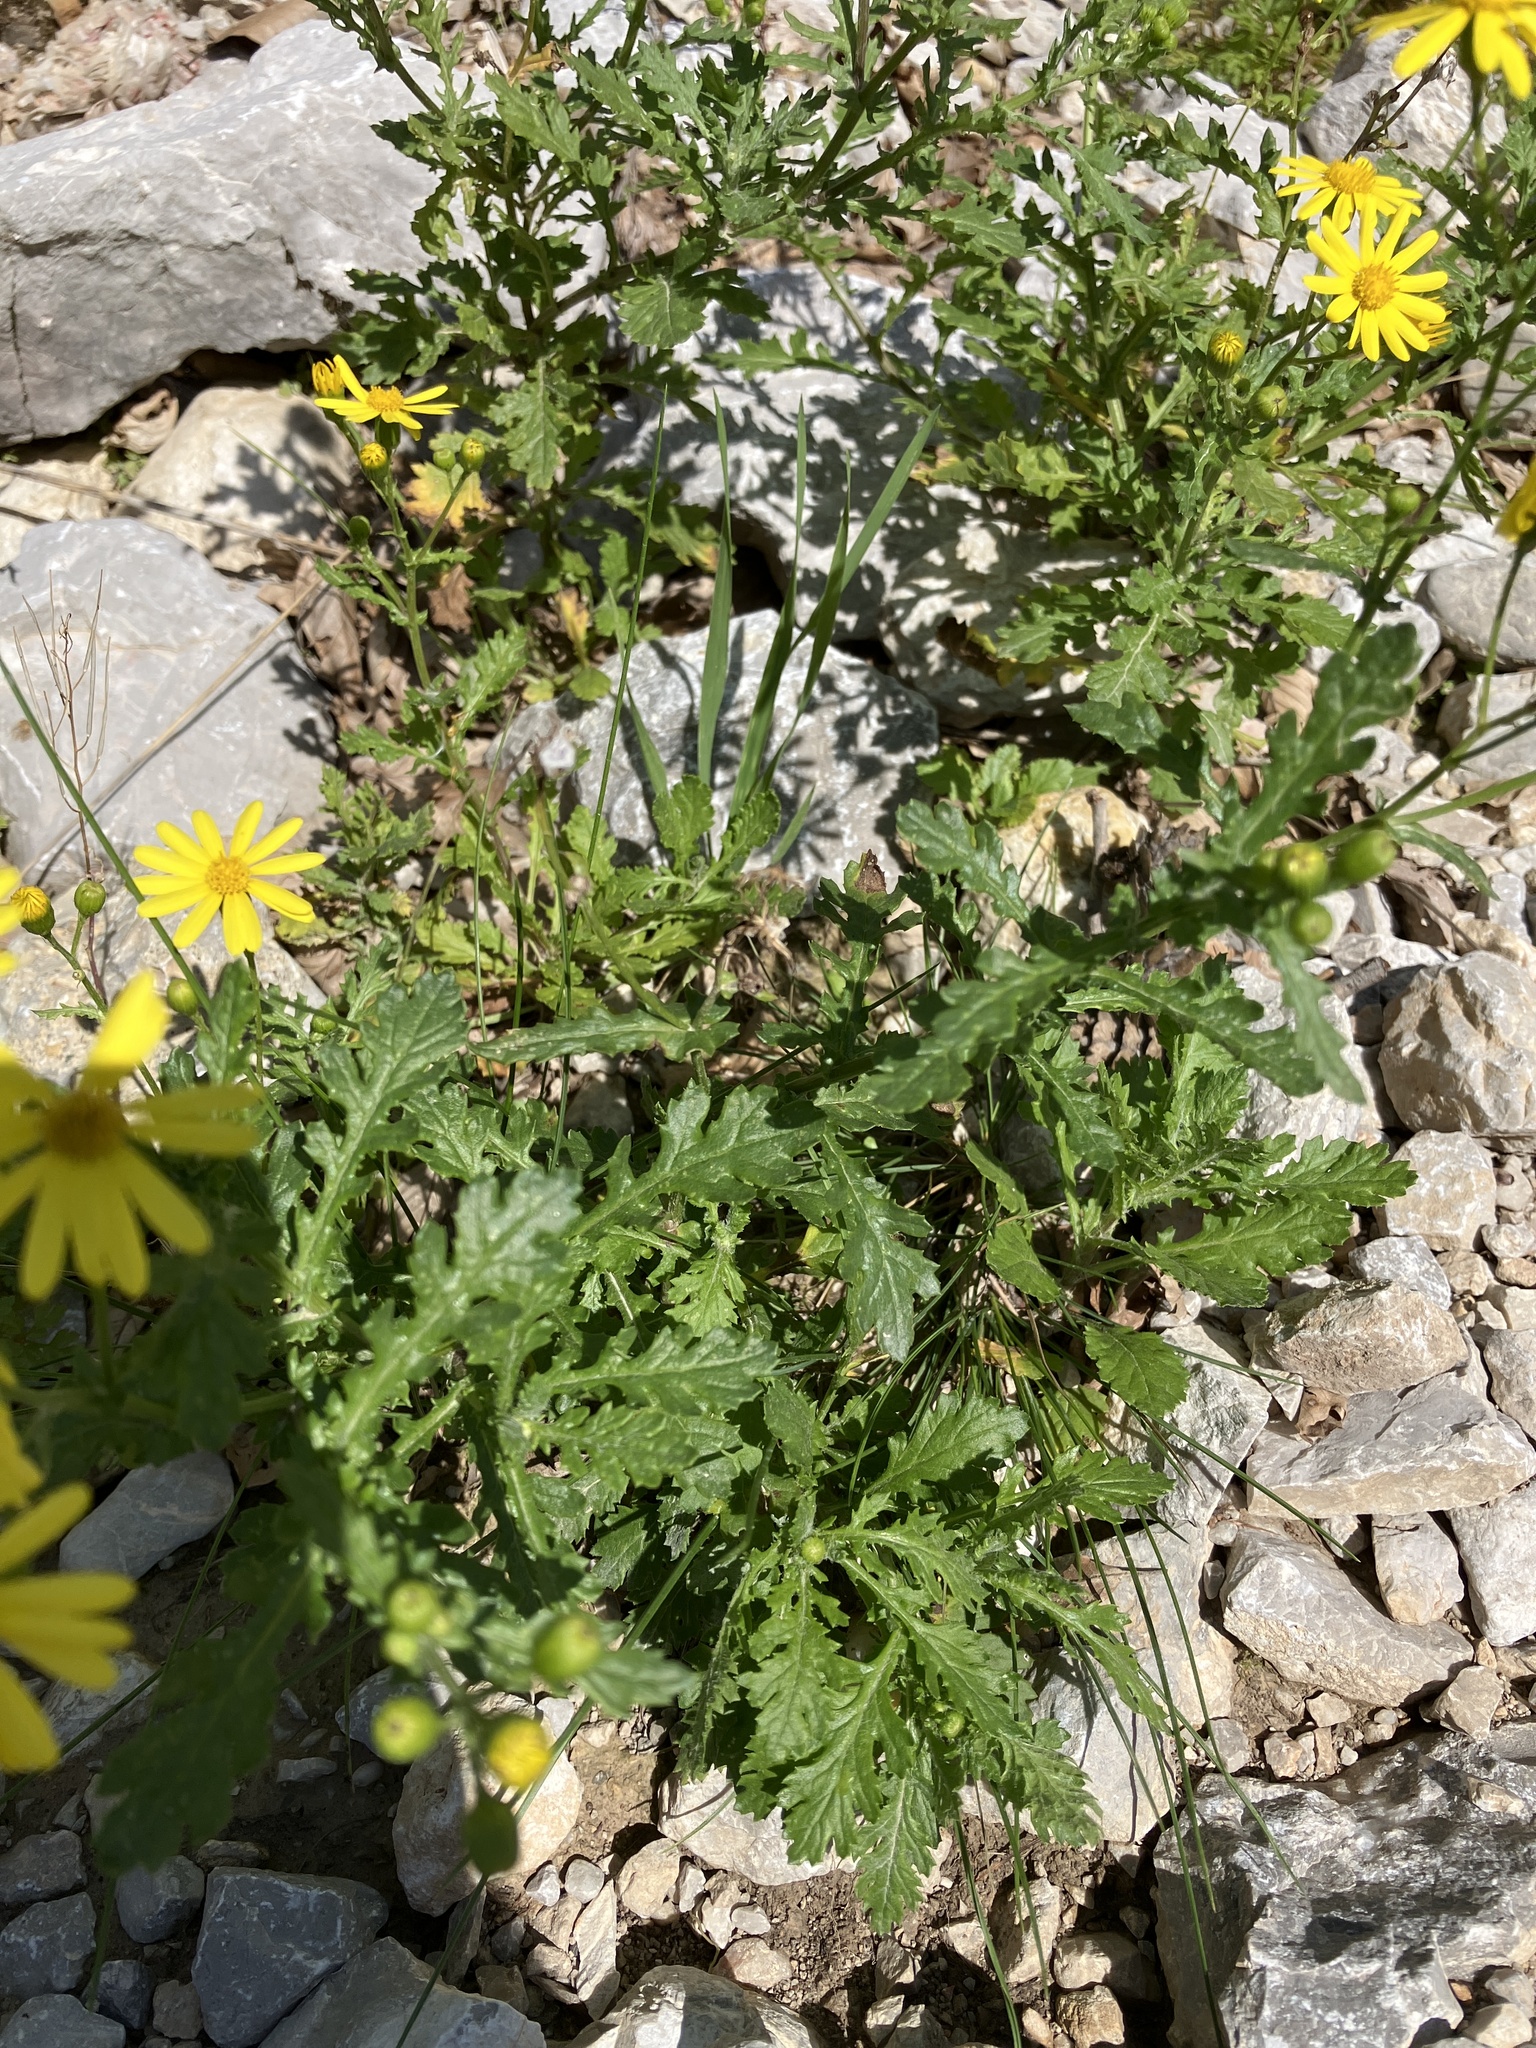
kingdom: Plantae
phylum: Tracheophyta
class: Magnoliopsida
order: Asterales
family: Asteraceae
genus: Senecio
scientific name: Senecio rupestris
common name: Rock ragwort
